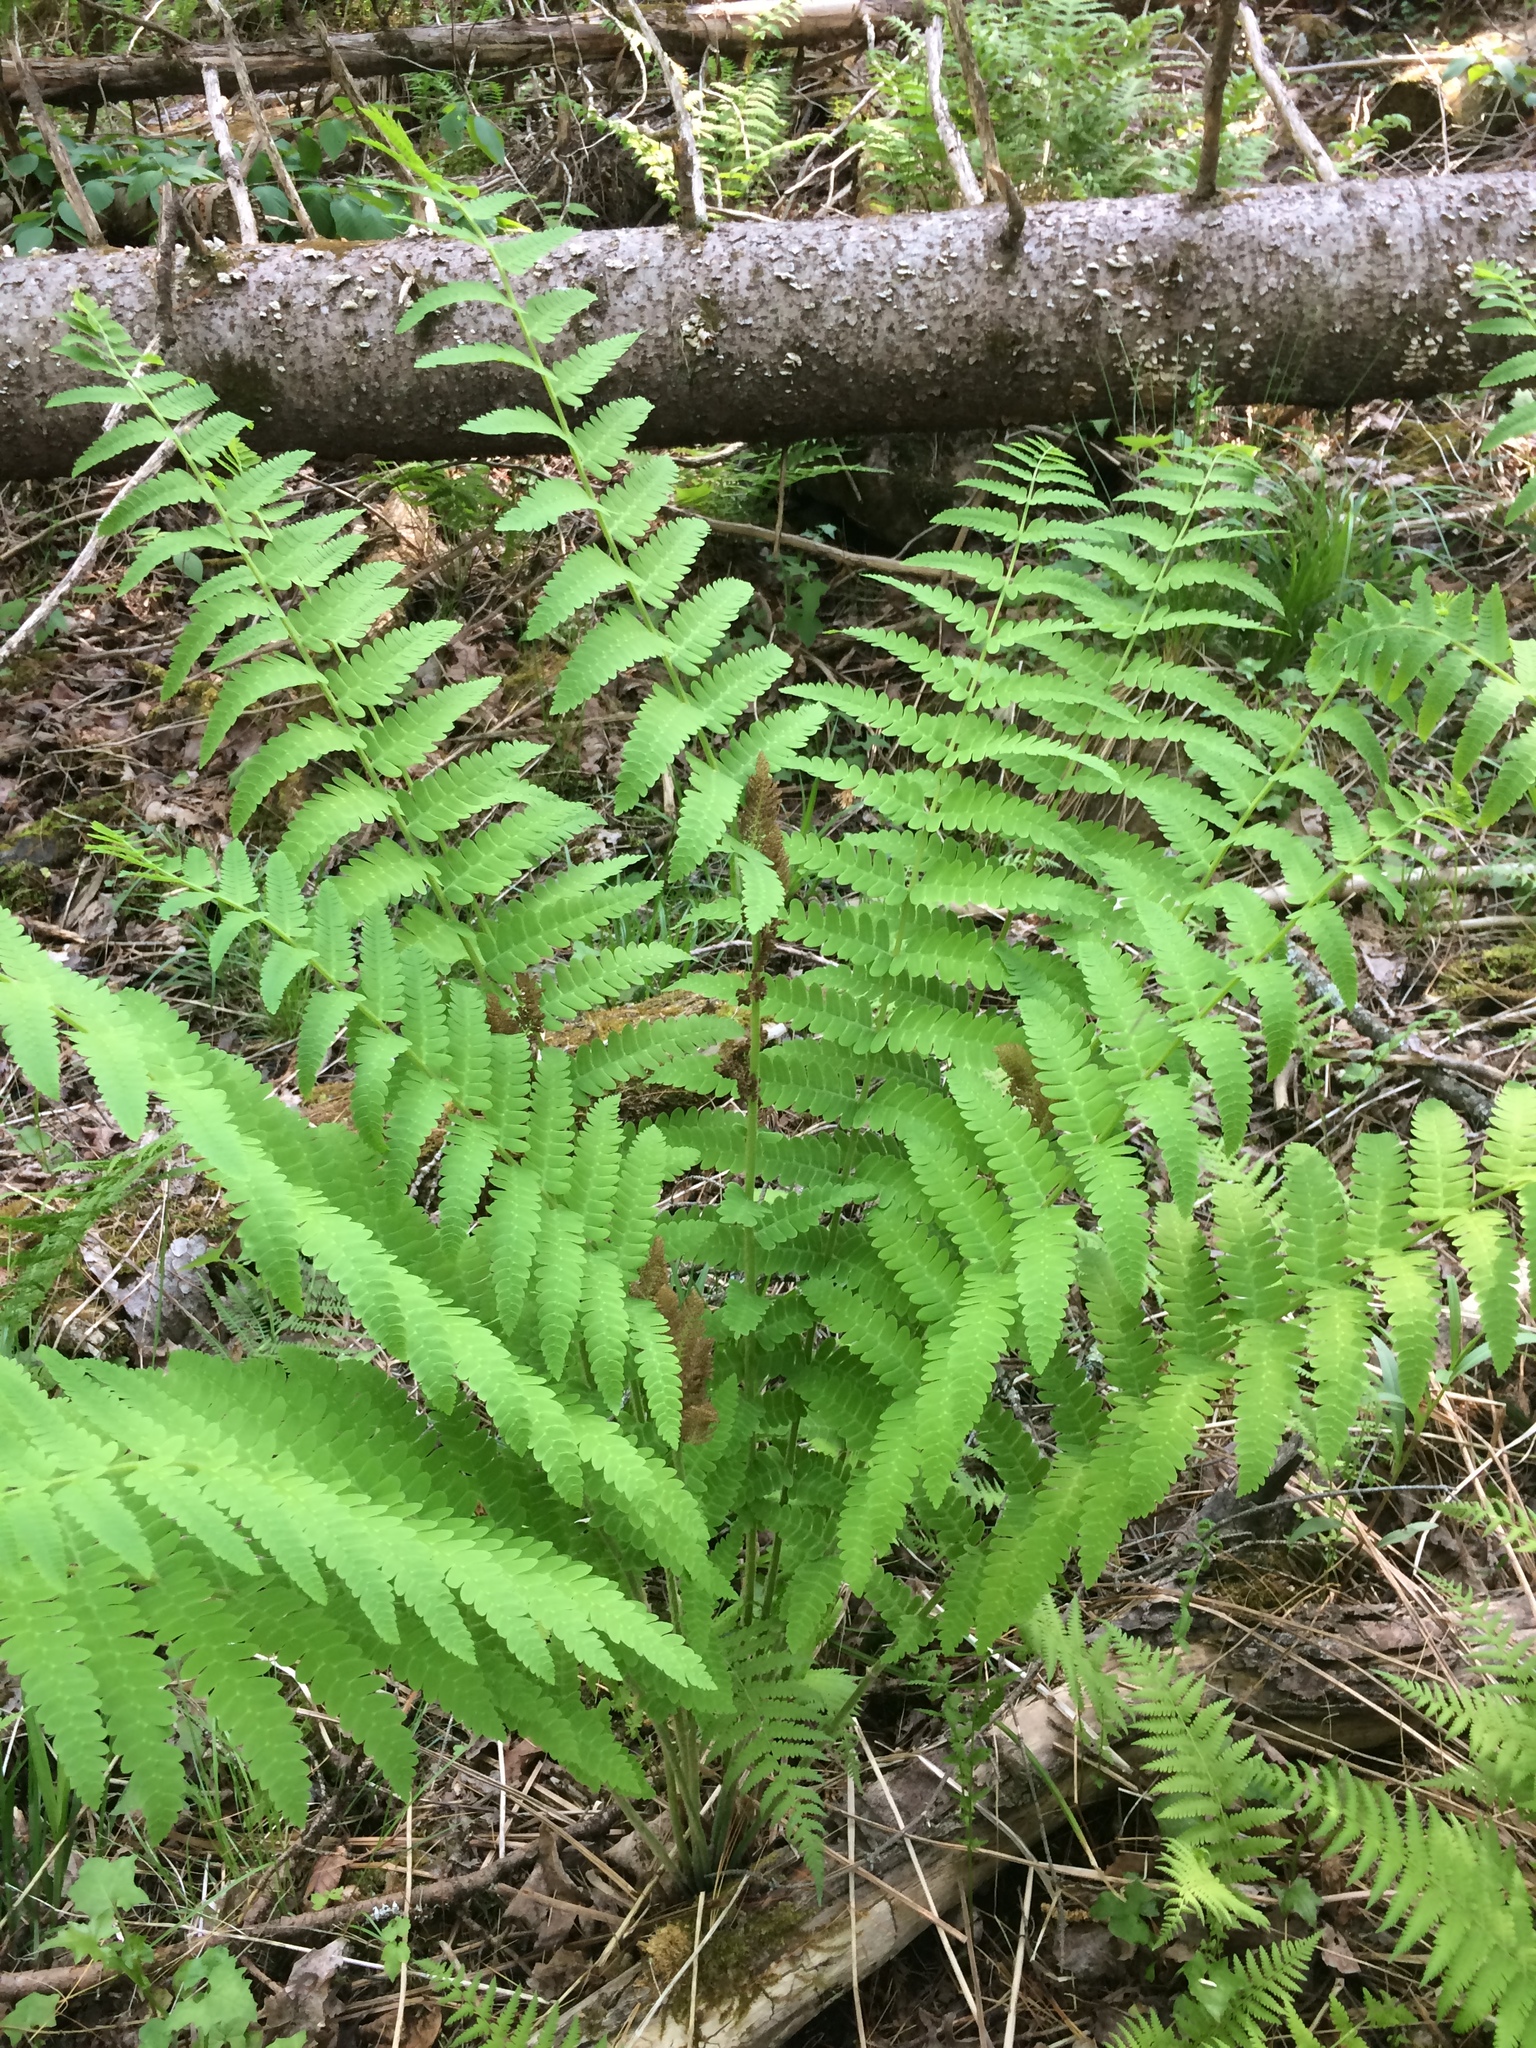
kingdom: Plantae
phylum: Tracheophyta
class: Polypodiopsida
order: Osmundales
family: Osmundaceae
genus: Claytosmunda
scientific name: Claytosmunda claytoniana
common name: Clayton's fern
